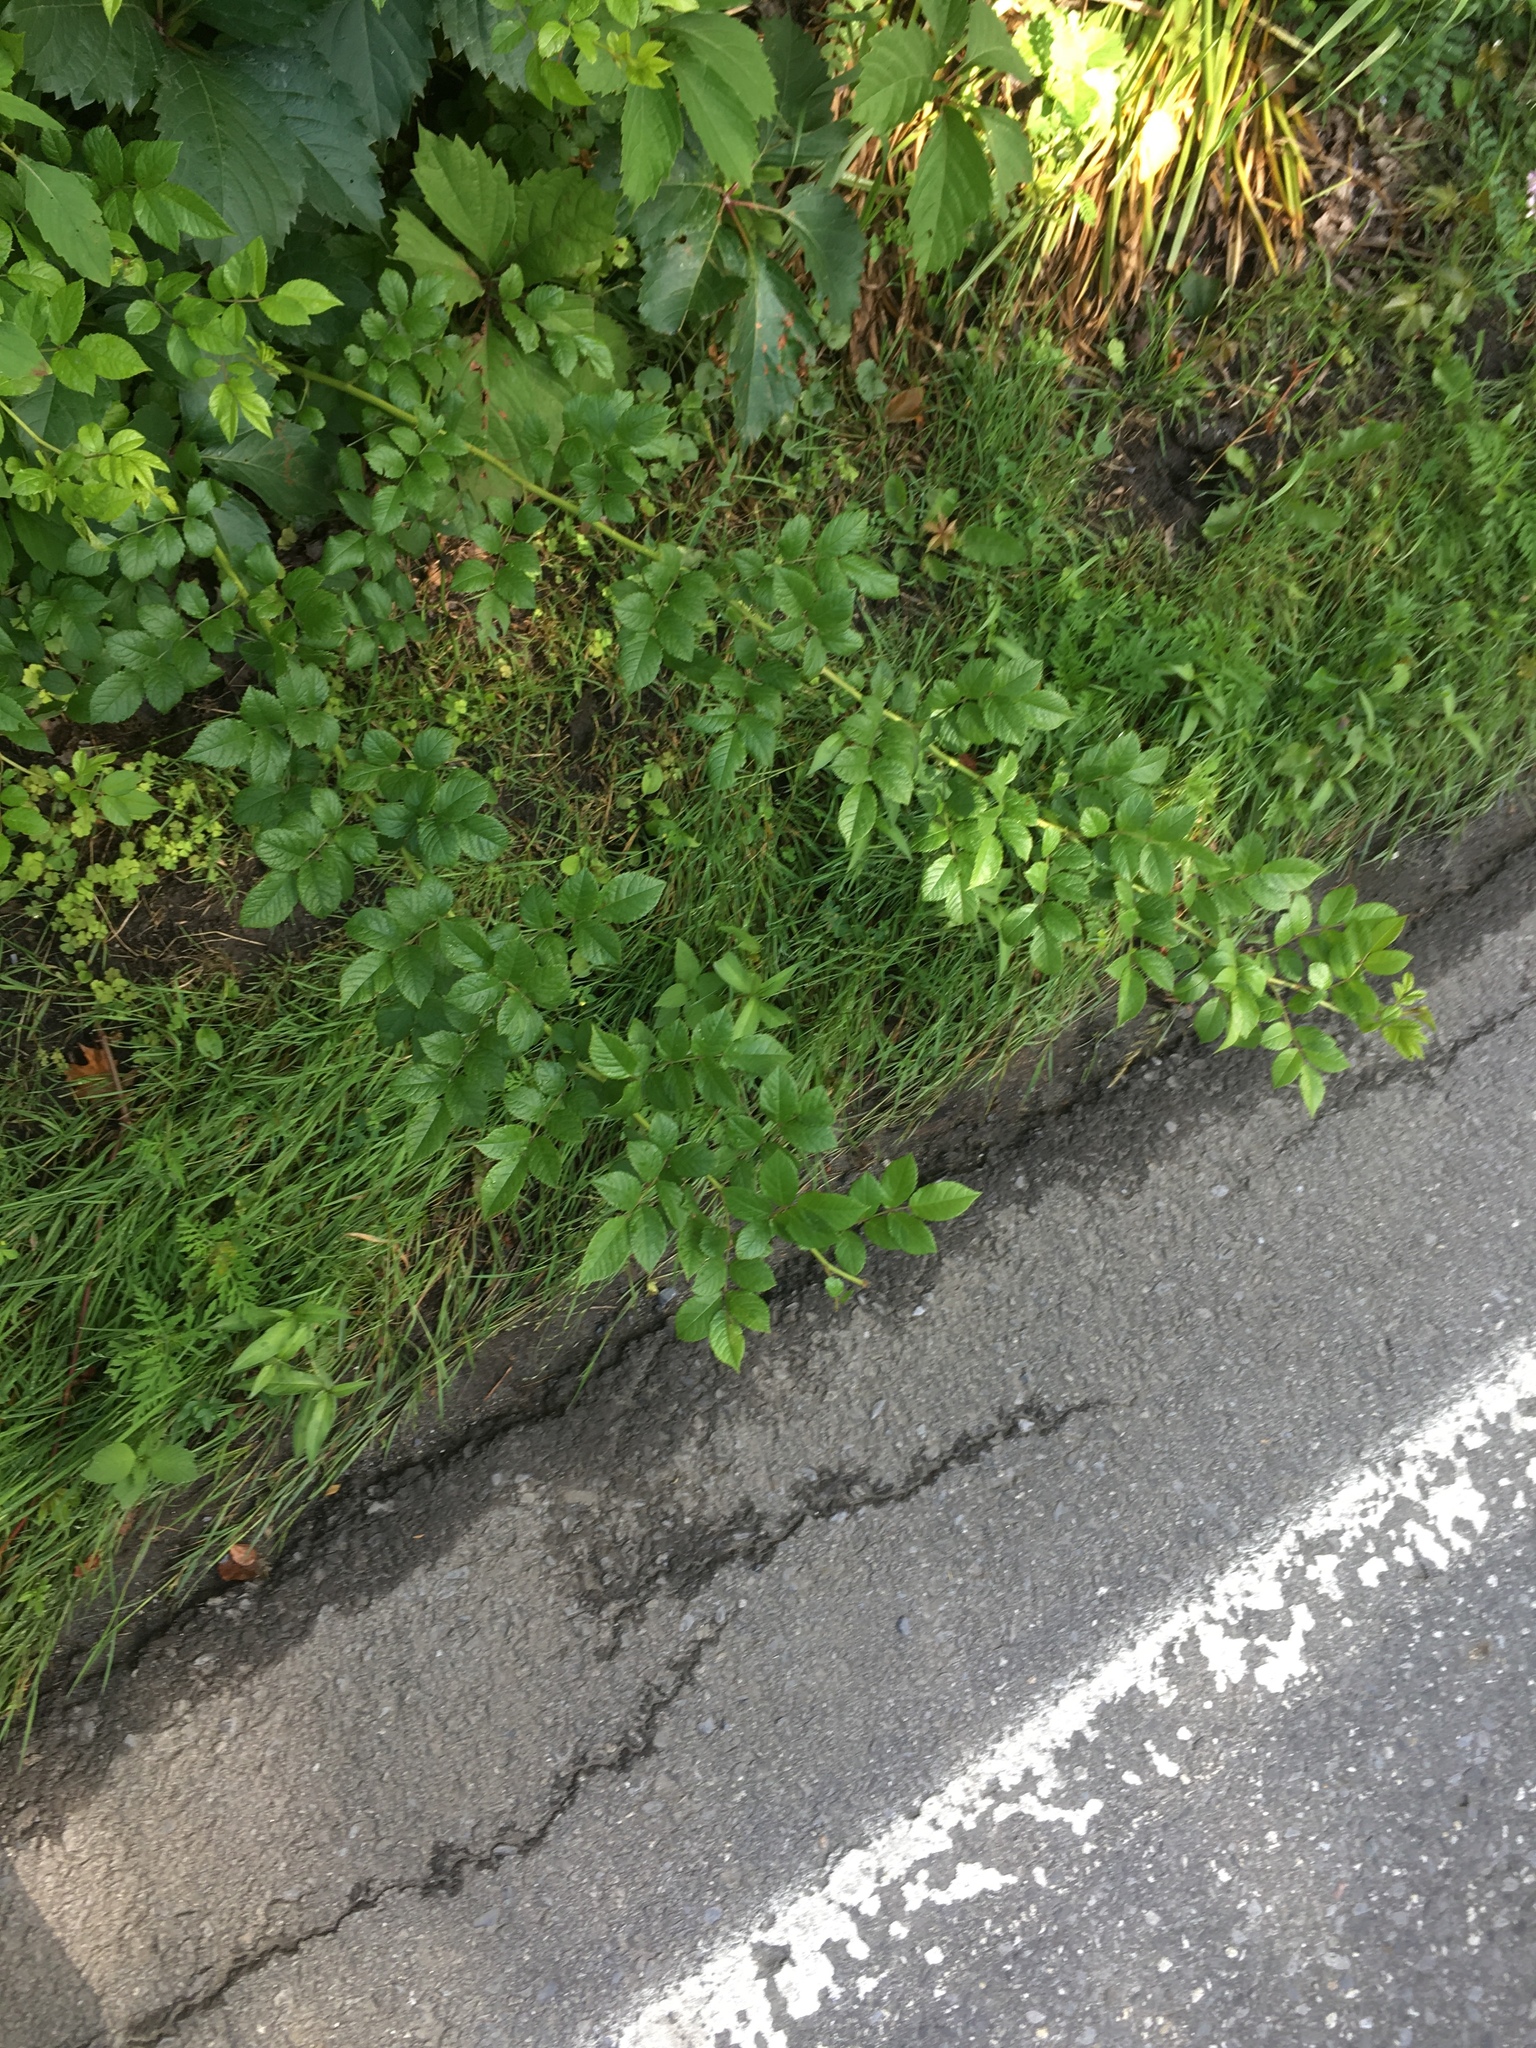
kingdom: Plantae
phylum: Tracheophyta
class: Magnoliopsida
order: Rosales
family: Rosaceae
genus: Rosa
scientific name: Rosa multiflora
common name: Multiflora rose
